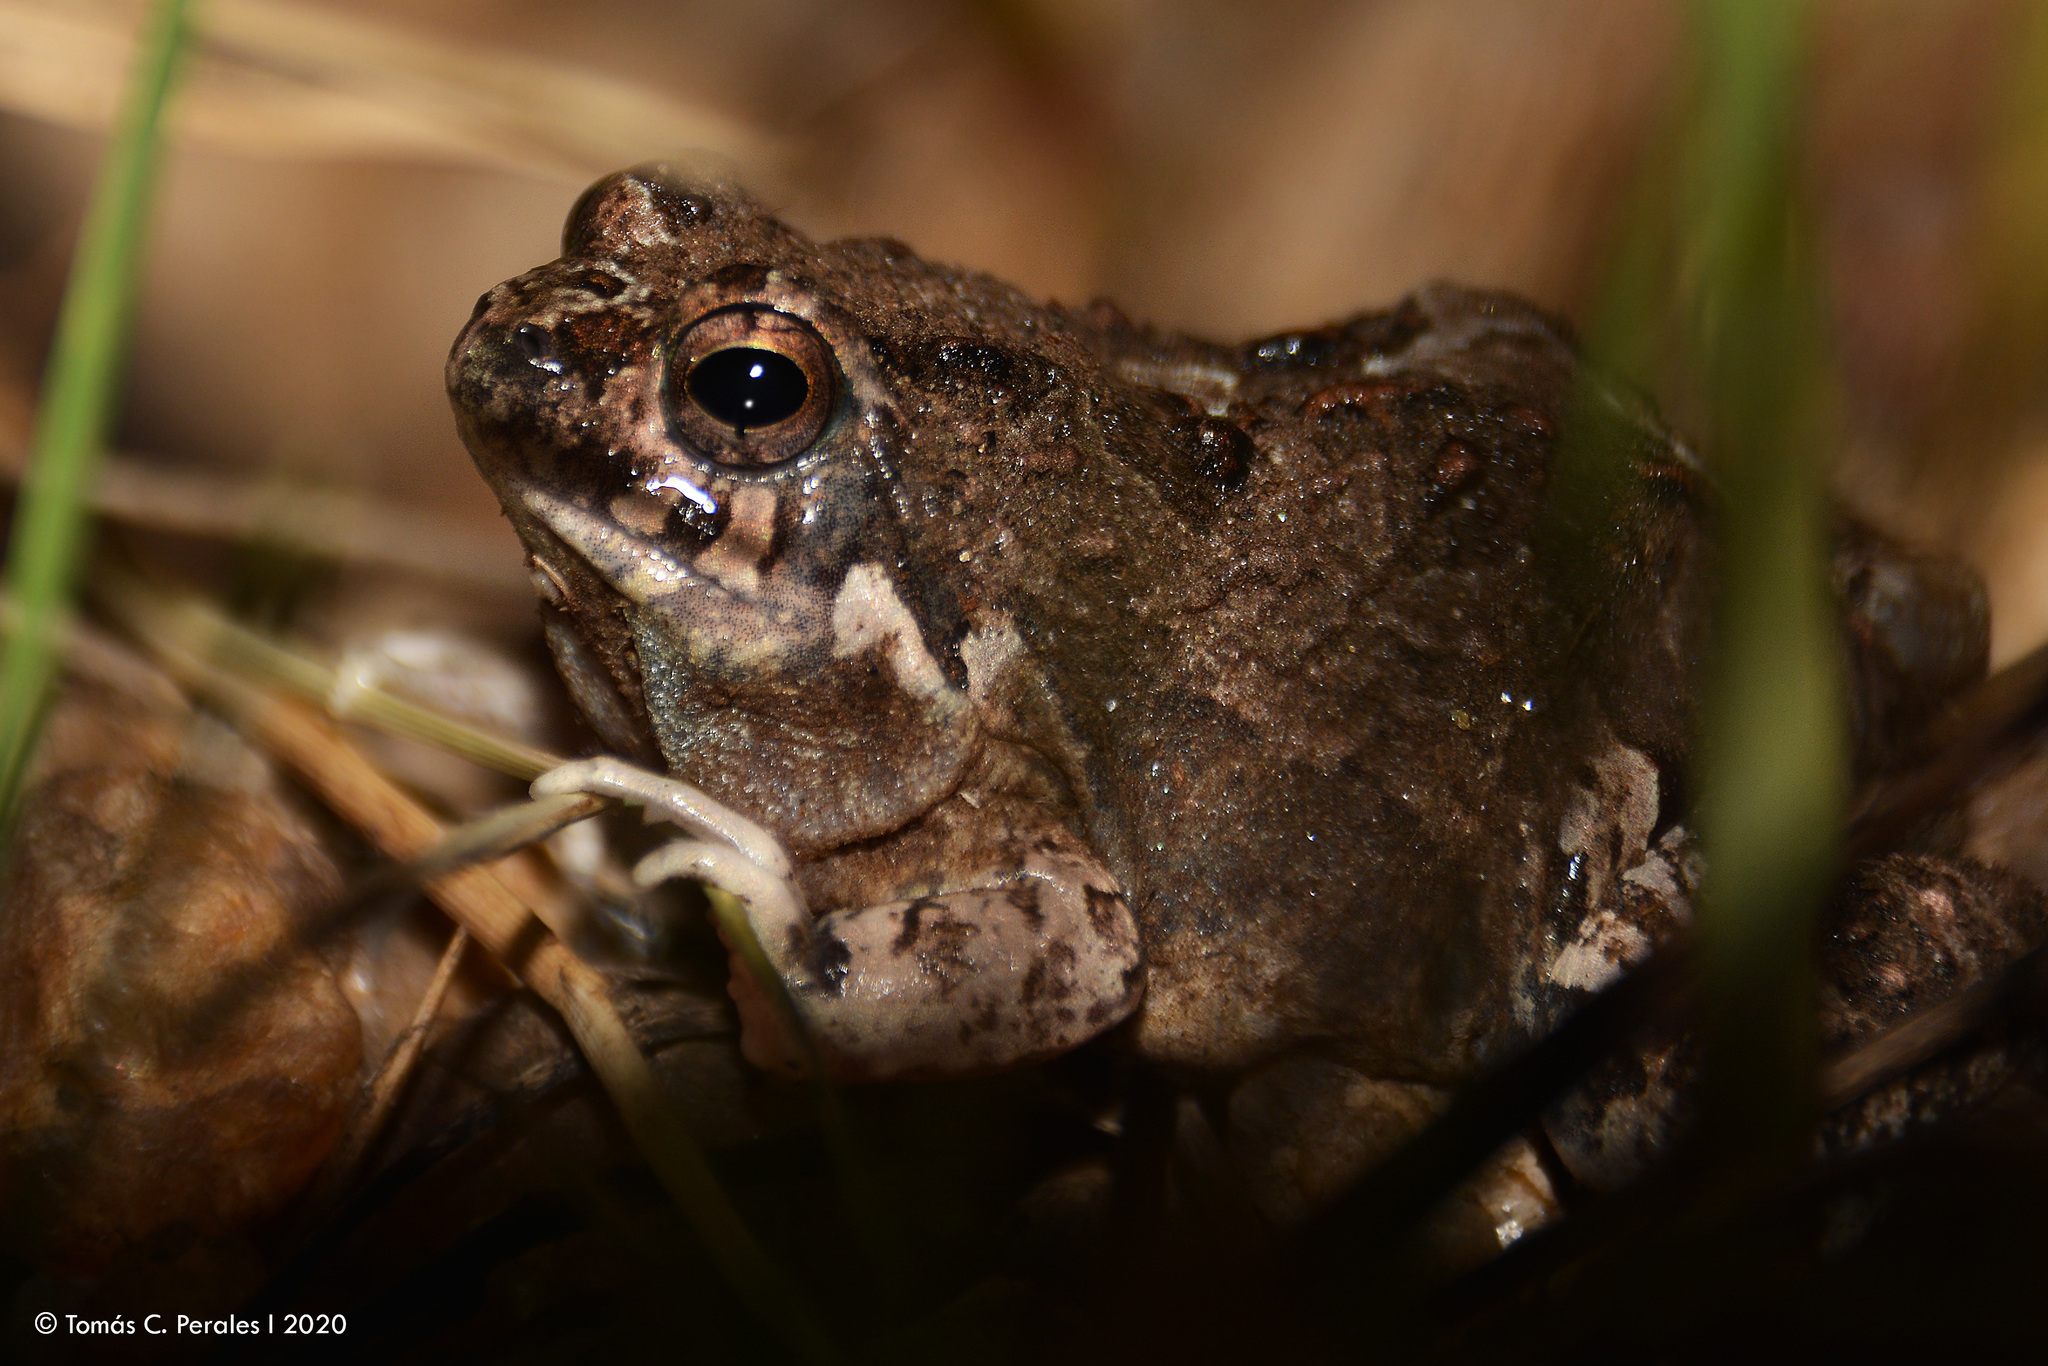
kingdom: Animalia
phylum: Chordata
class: Amphibia
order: Anura
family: Leptodactylidae
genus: Physalaemus
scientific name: Physalaemus biligonigerus
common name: Weeping frog
